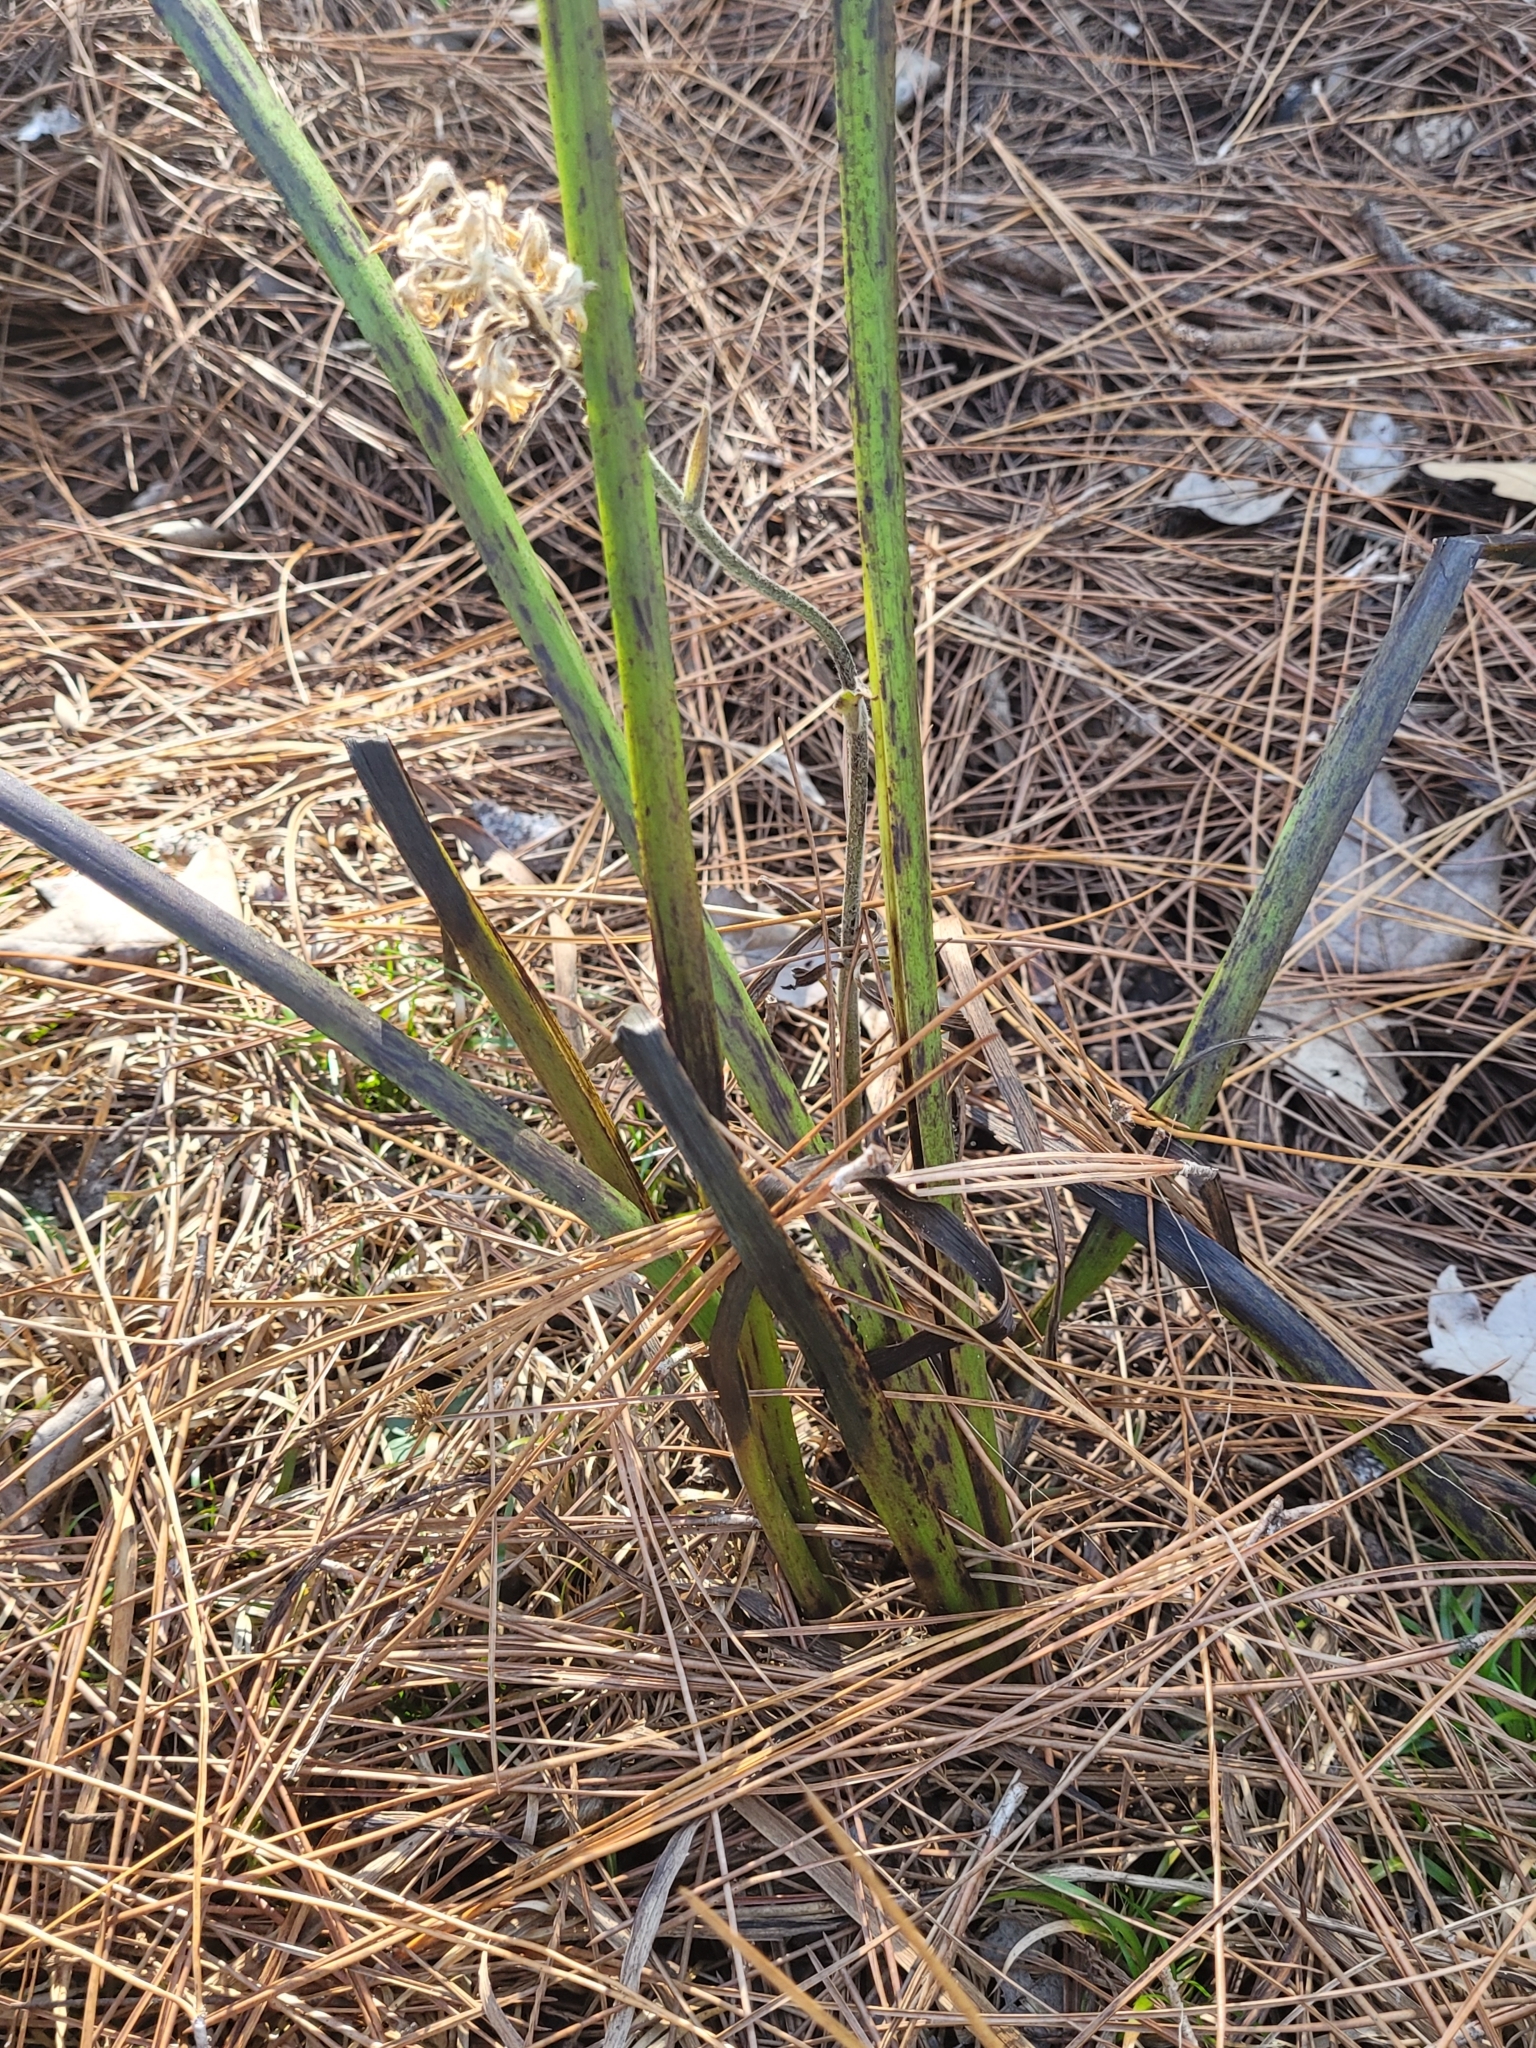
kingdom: Plantae
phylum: Tracheophyta
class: Liliopsida
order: Commelinales
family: Haemodoraceae
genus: Lachnanthes
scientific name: Lachnanthes caroliana
